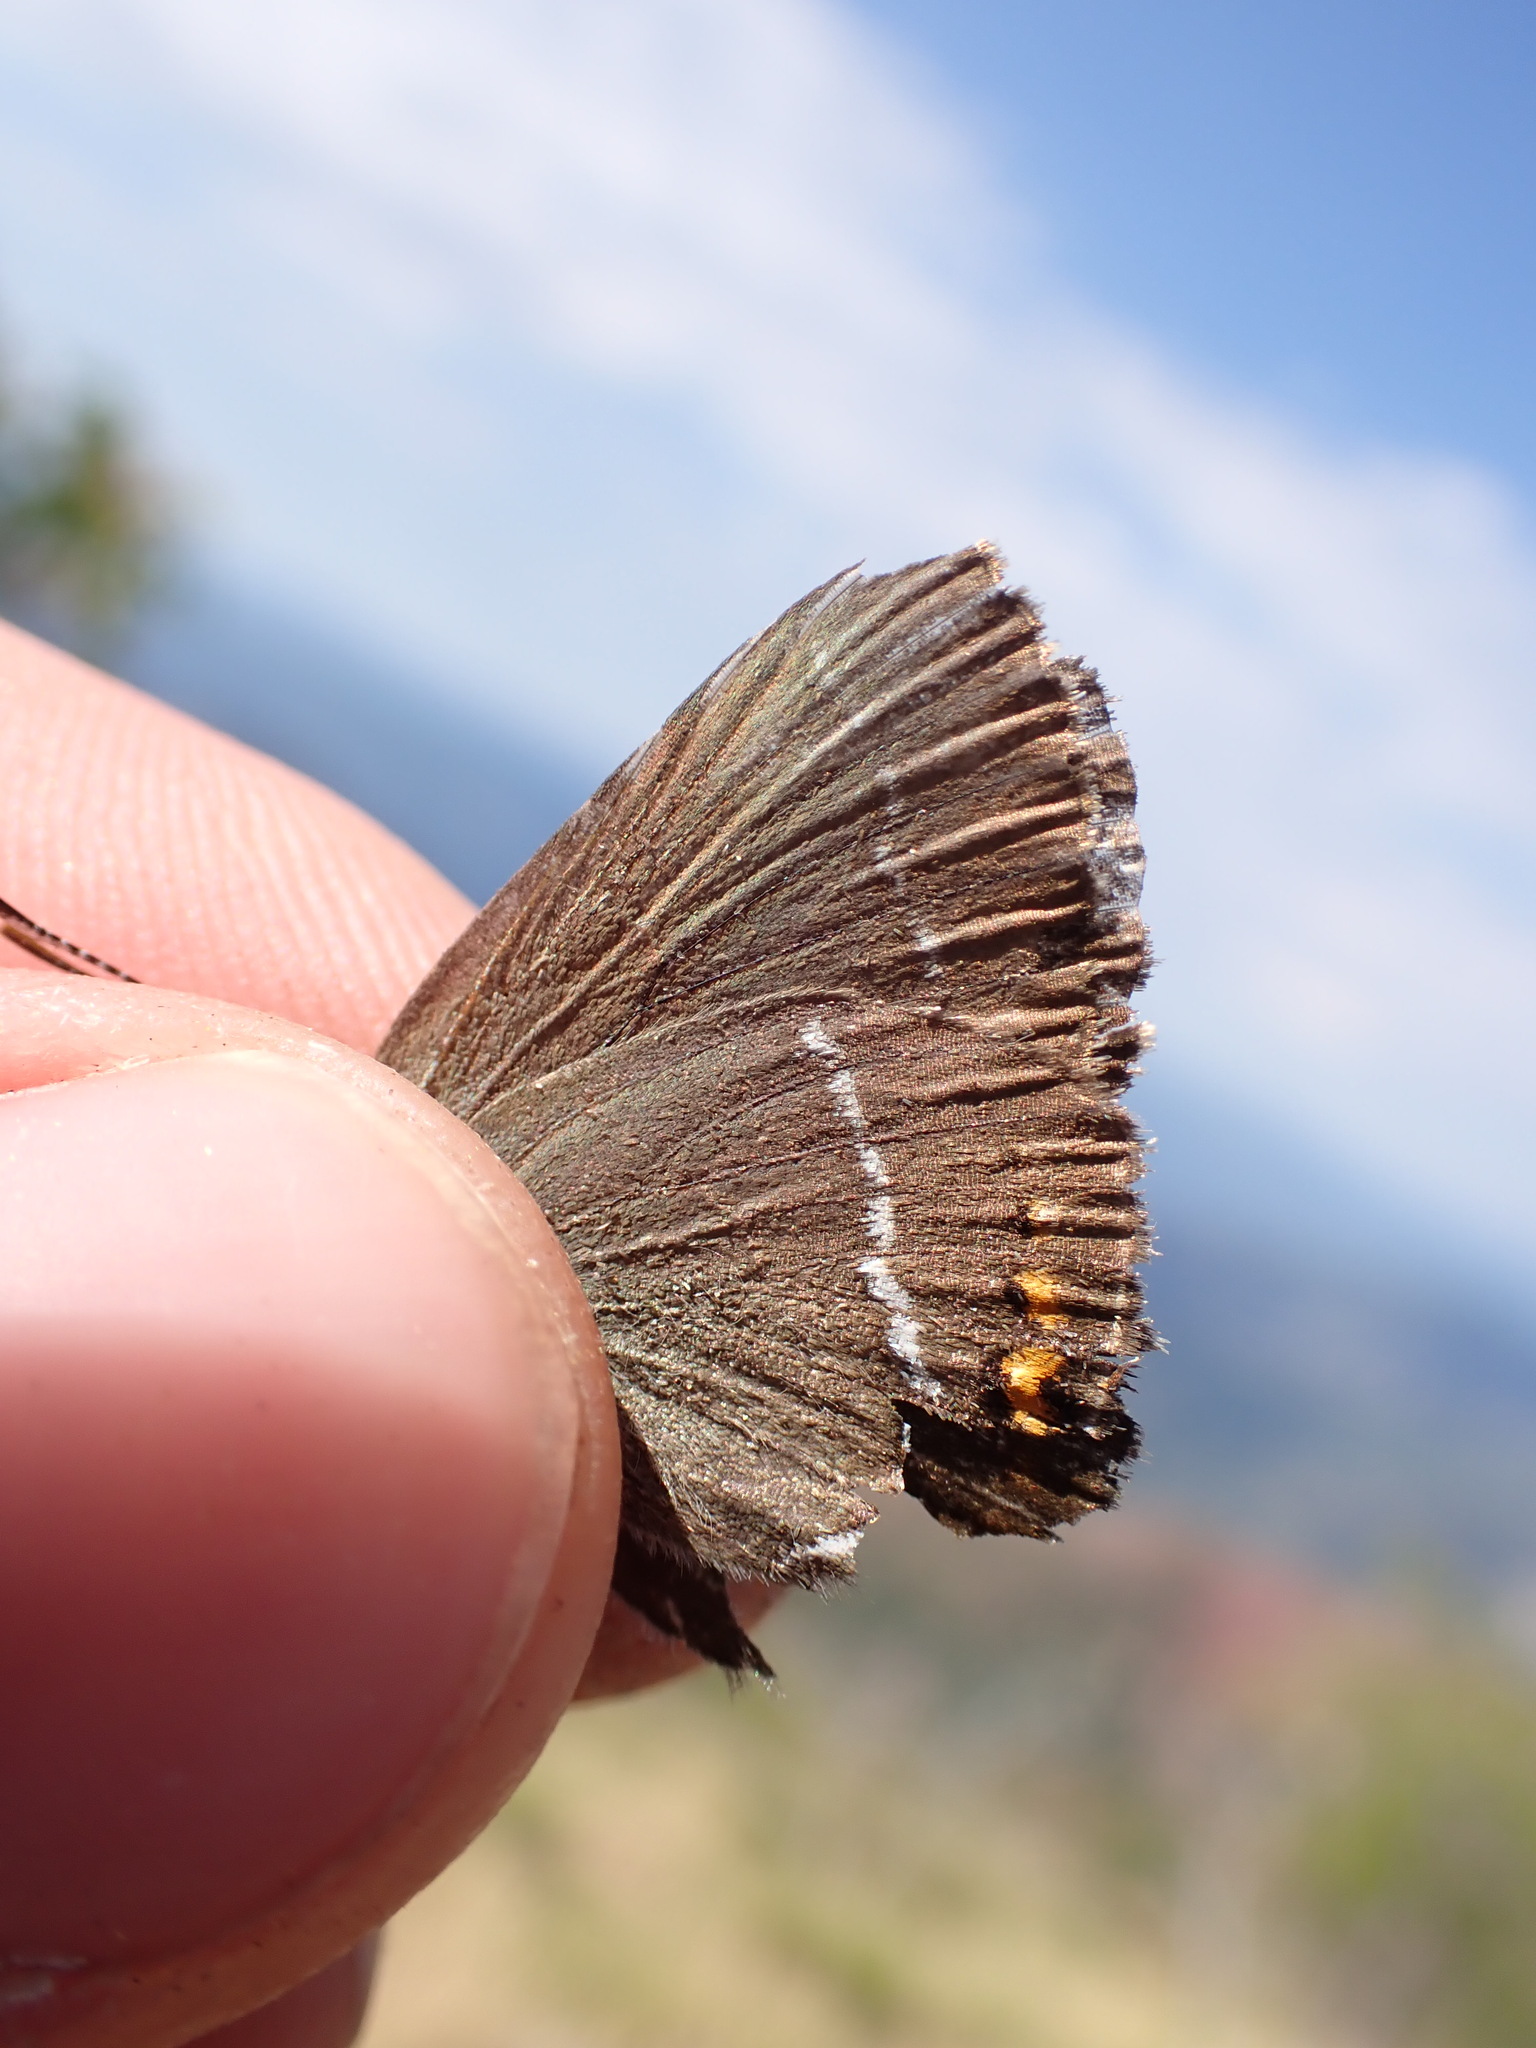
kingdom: Animalia
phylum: Arthropoda
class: Insecta
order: Lepidoptera
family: Lycaenidae
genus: Tuttiola
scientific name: Tuttiola spini
